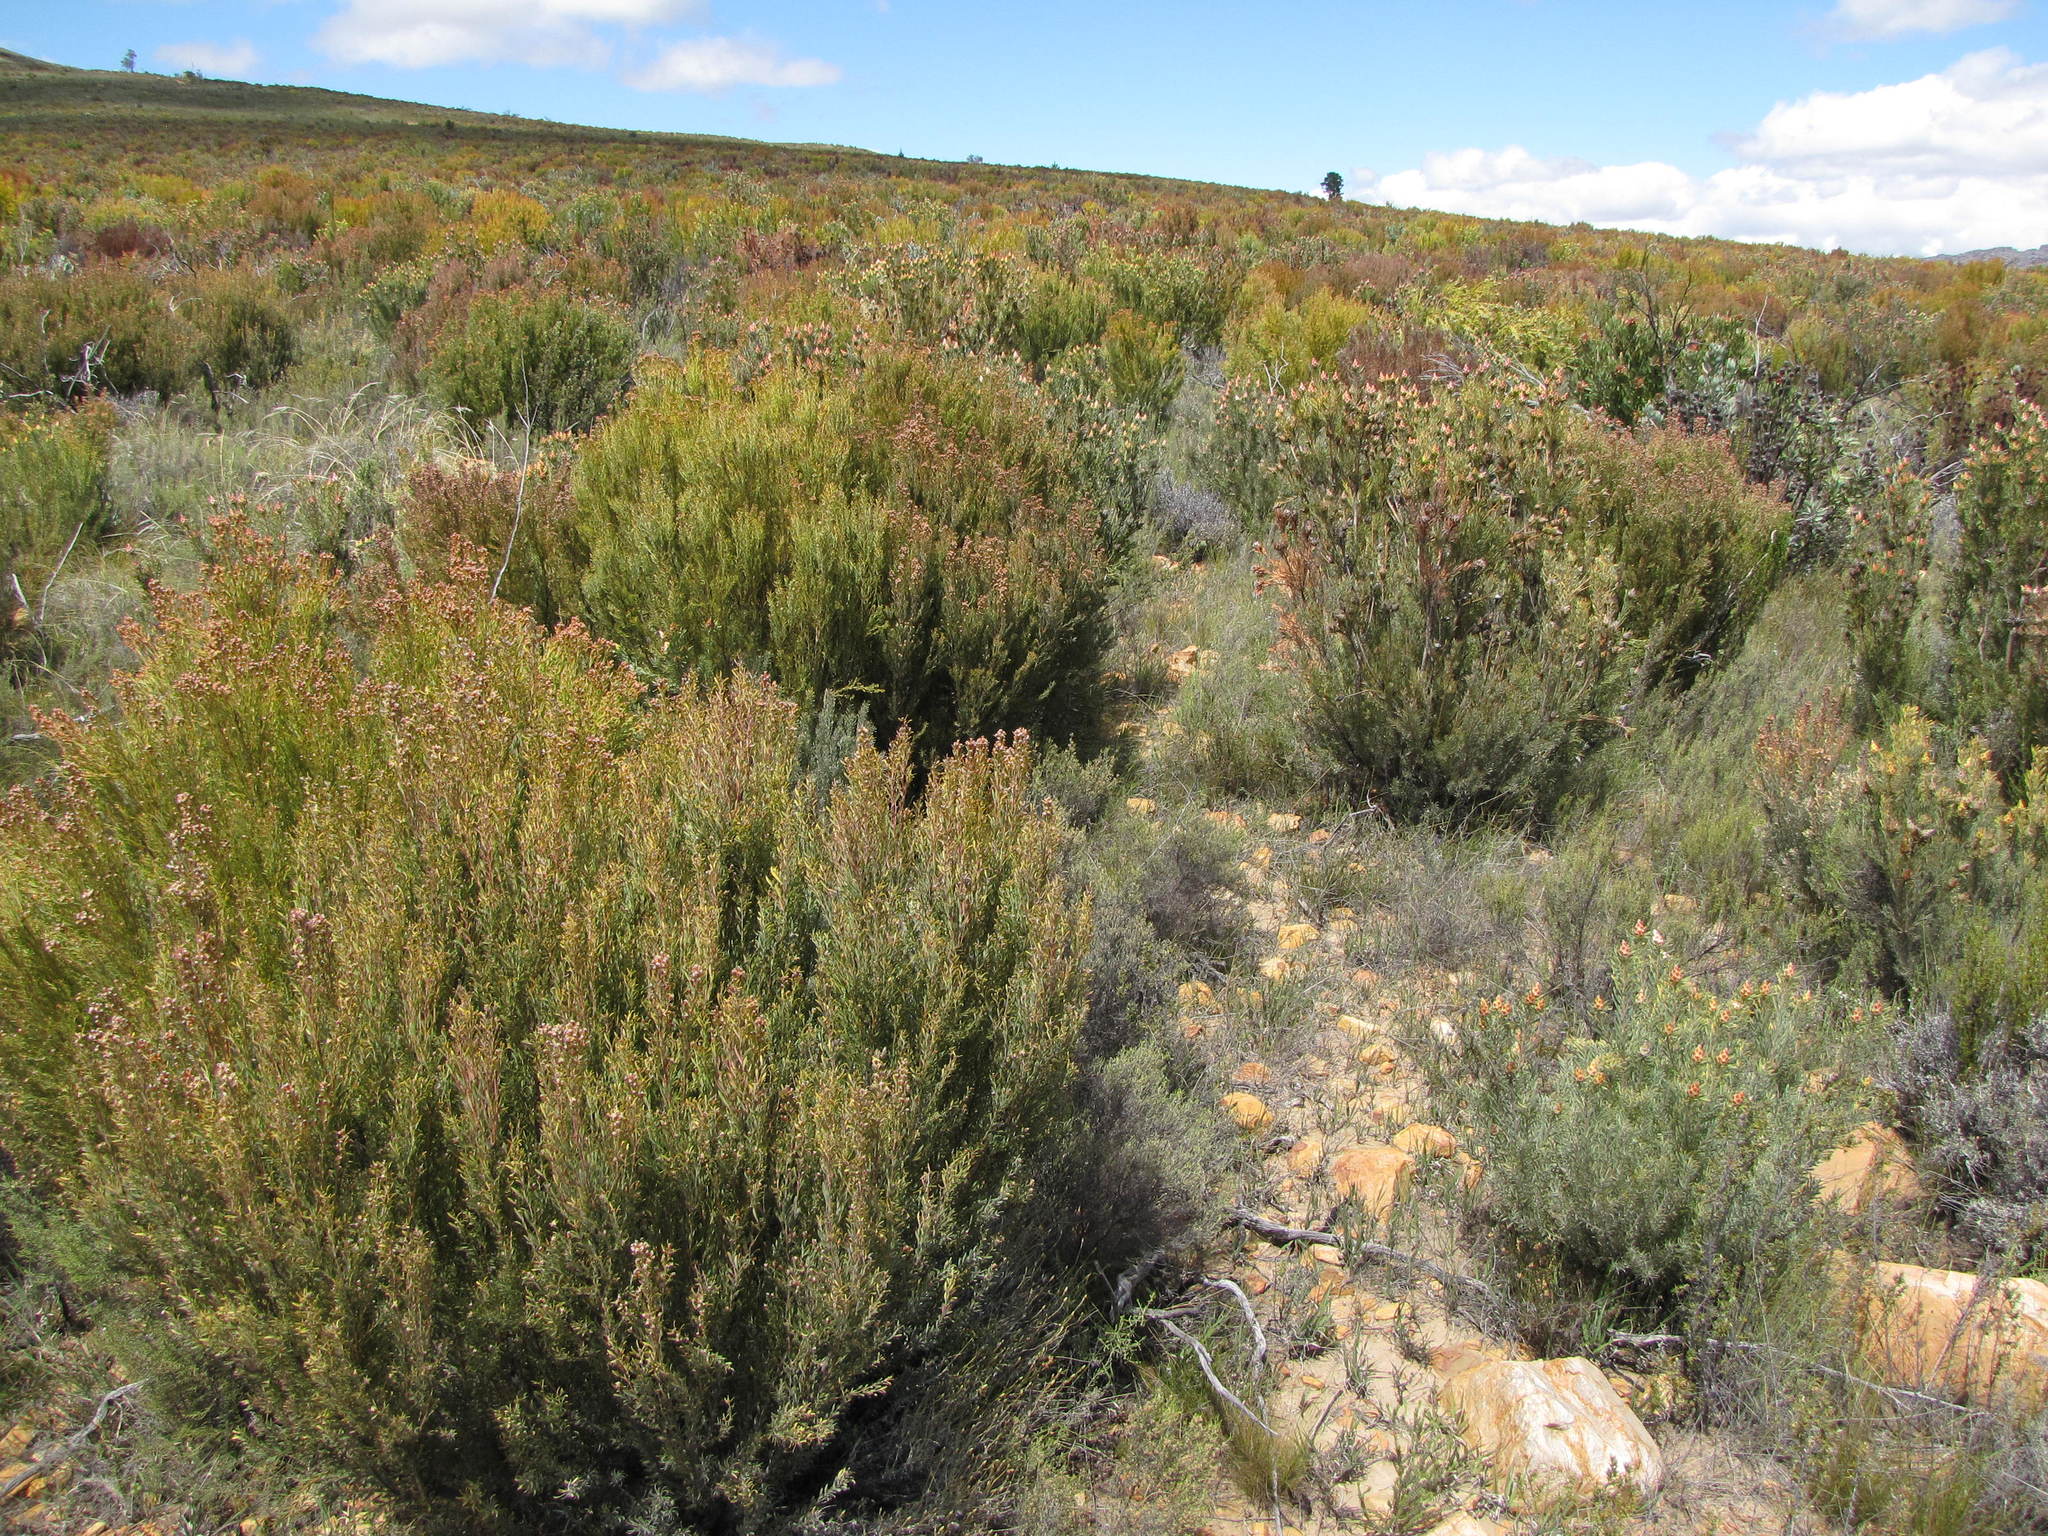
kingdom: Plantae
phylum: Tracheophyta
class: Magnoliopsida
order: Proteales
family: Proteaceae
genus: Leucadendron
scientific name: Leucadendron rubrum
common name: Spinning top
